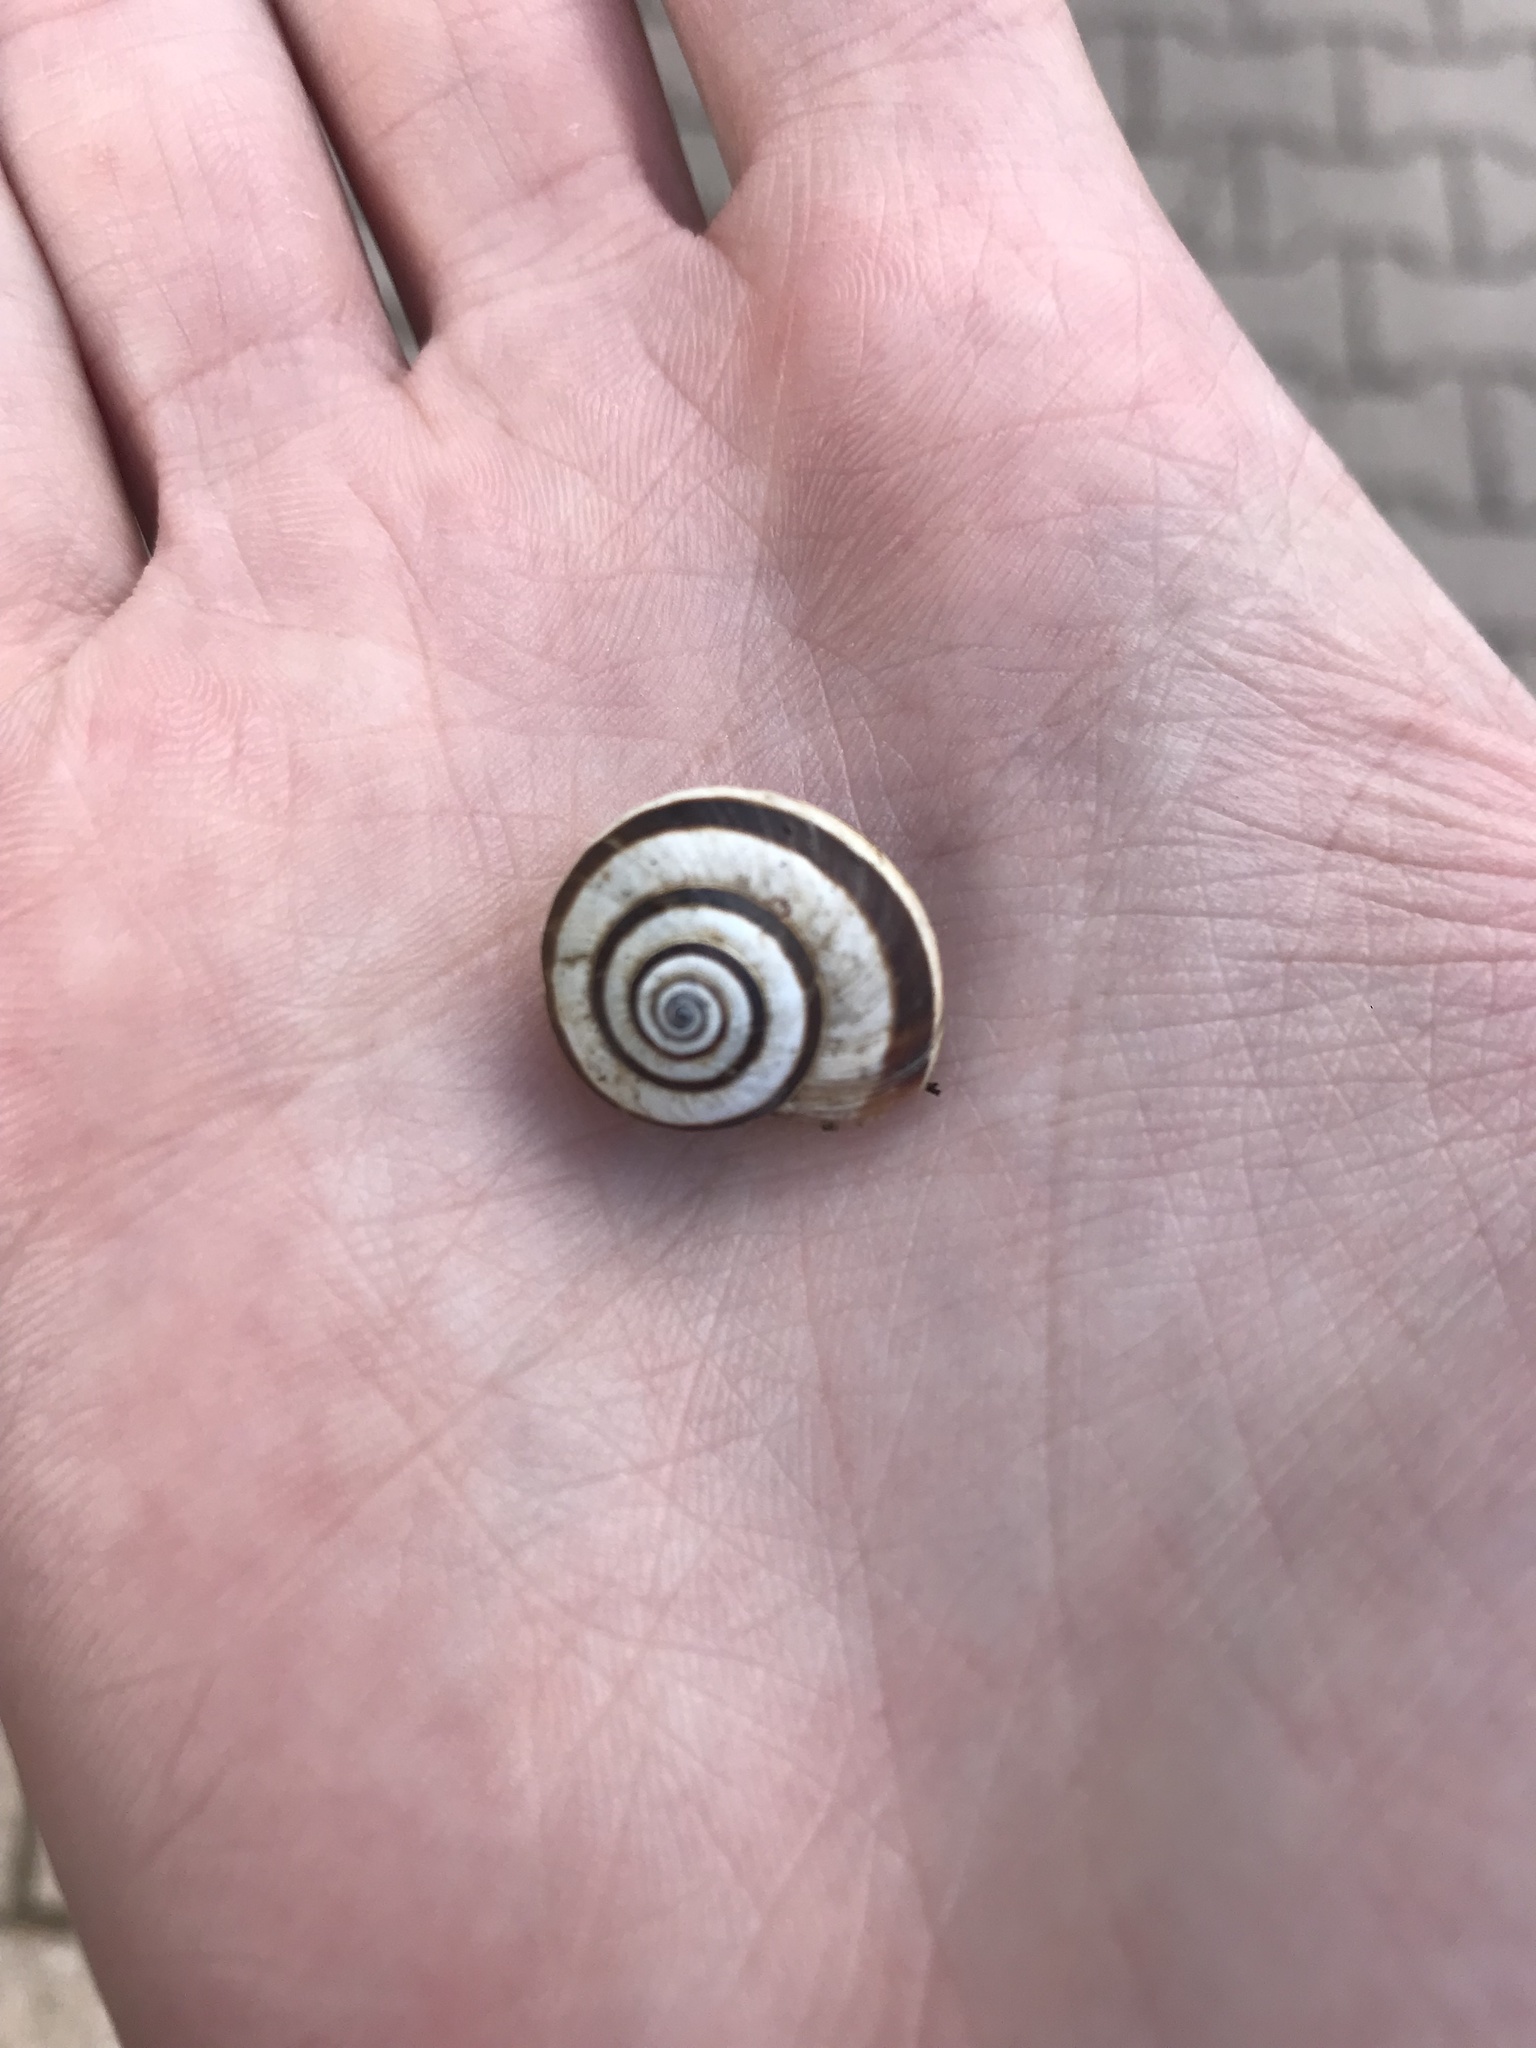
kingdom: Animalia
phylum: Mollusca
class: Gastropoda
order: Stylommatophora
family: Geomitridae
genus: Cernuella
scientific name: Cernuella virgata
